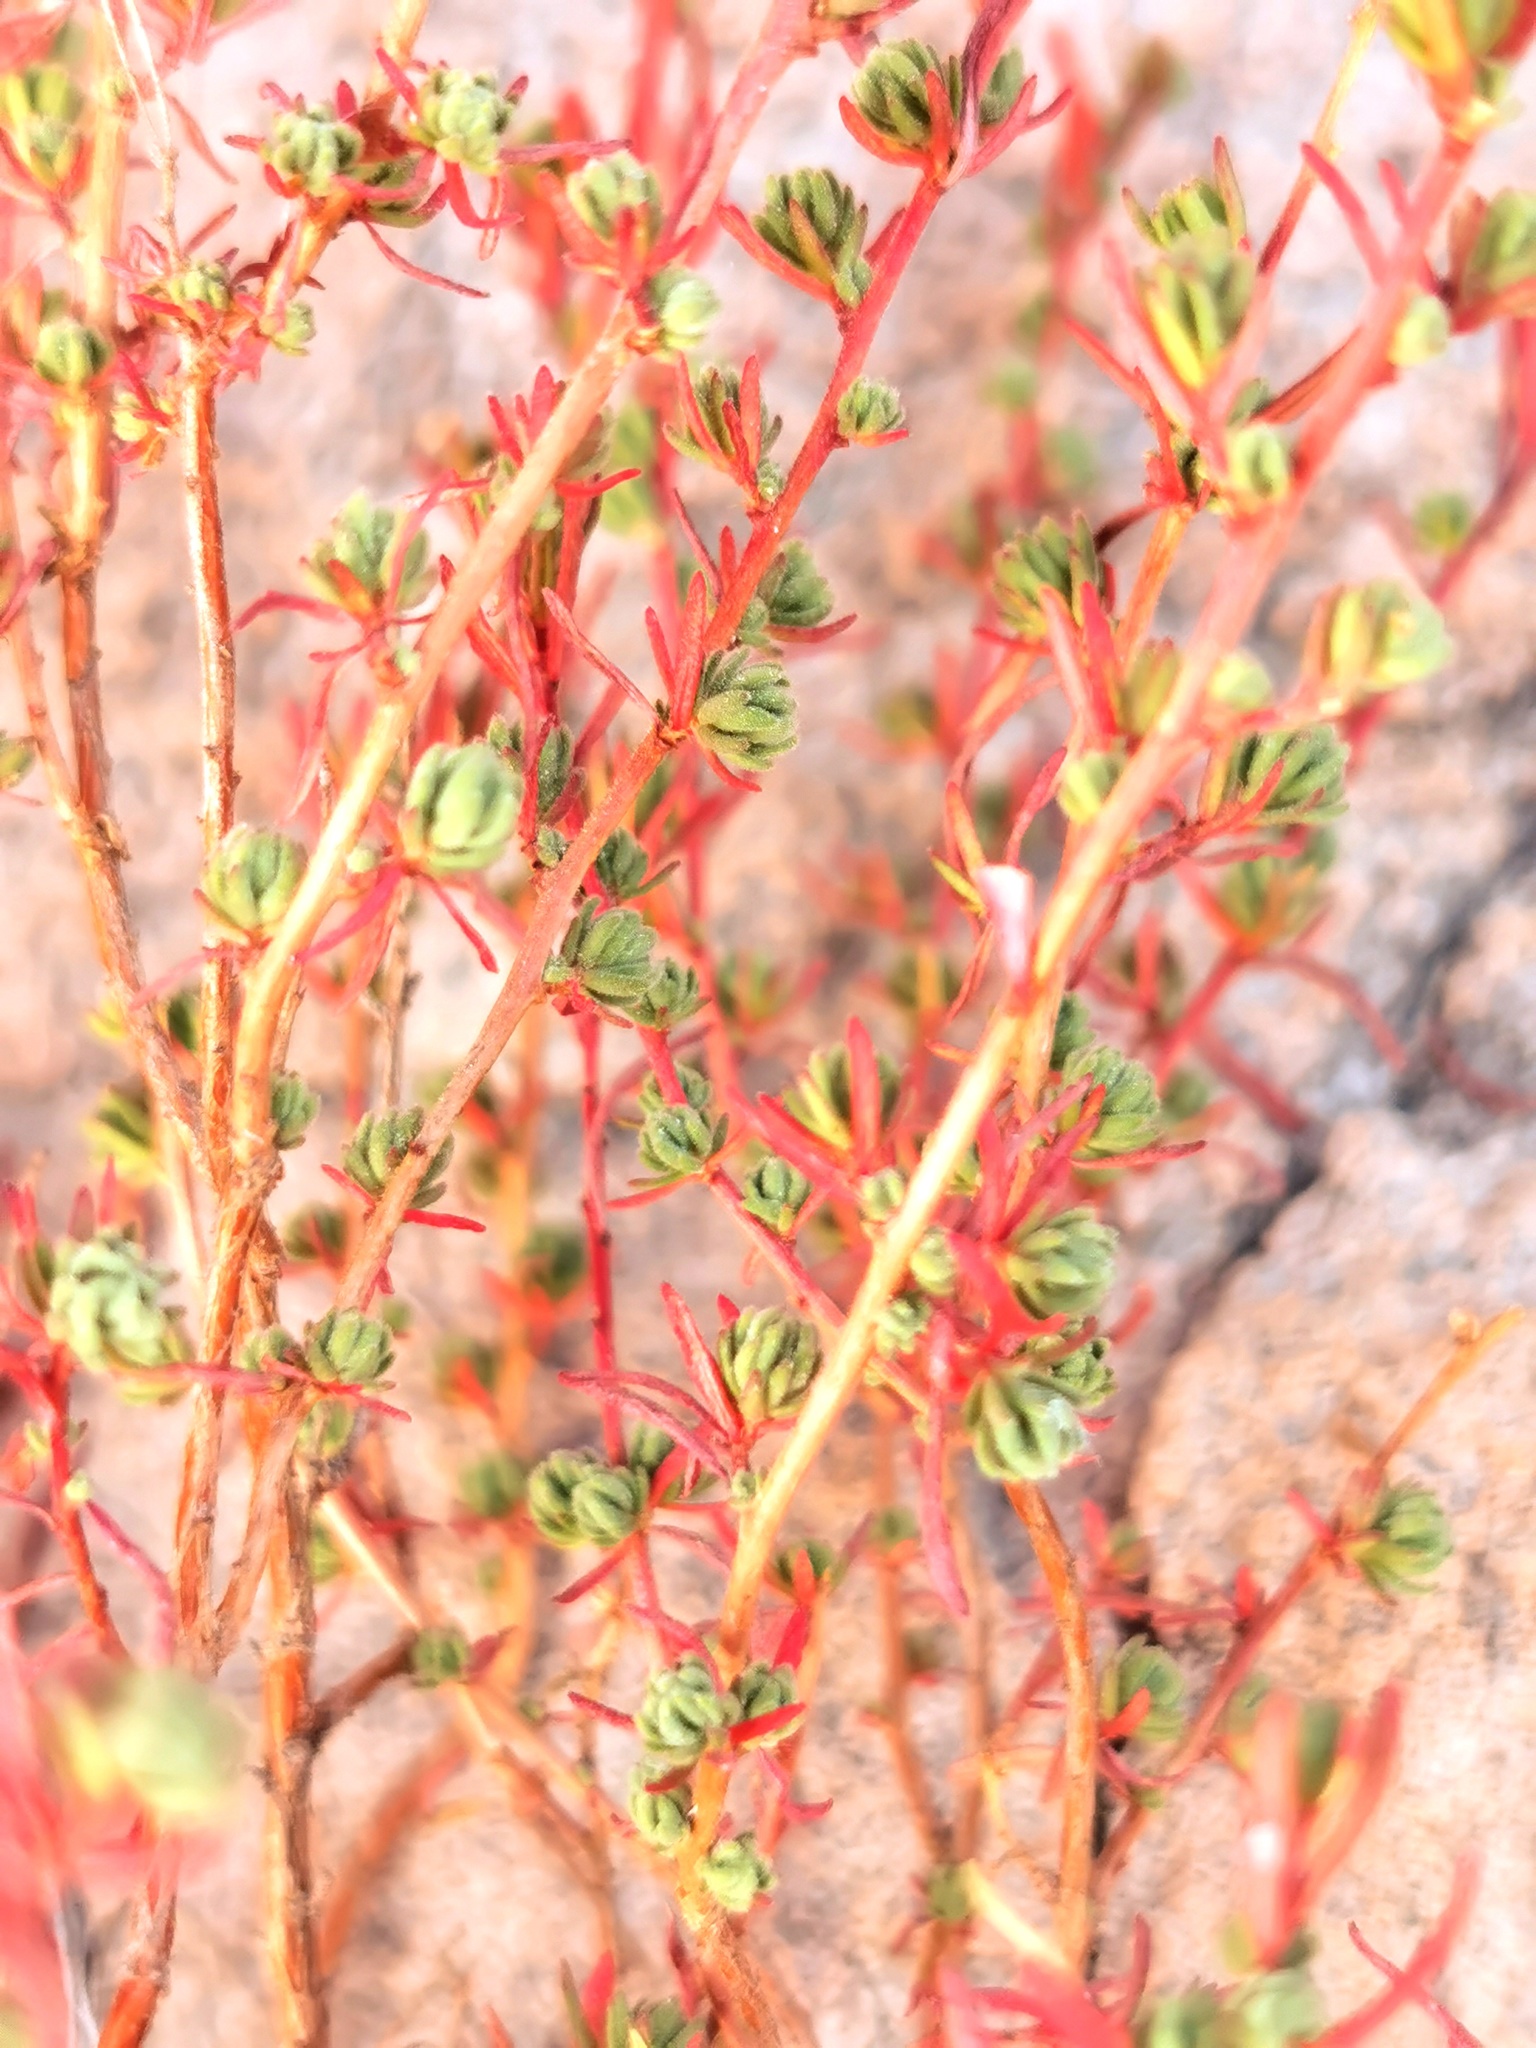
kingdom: Plantae
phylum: Tracheophyta
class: Magnoliopsida
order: Myrtales
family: Onagraceae
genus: Megacorax
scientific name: Megacorax gracielanus
